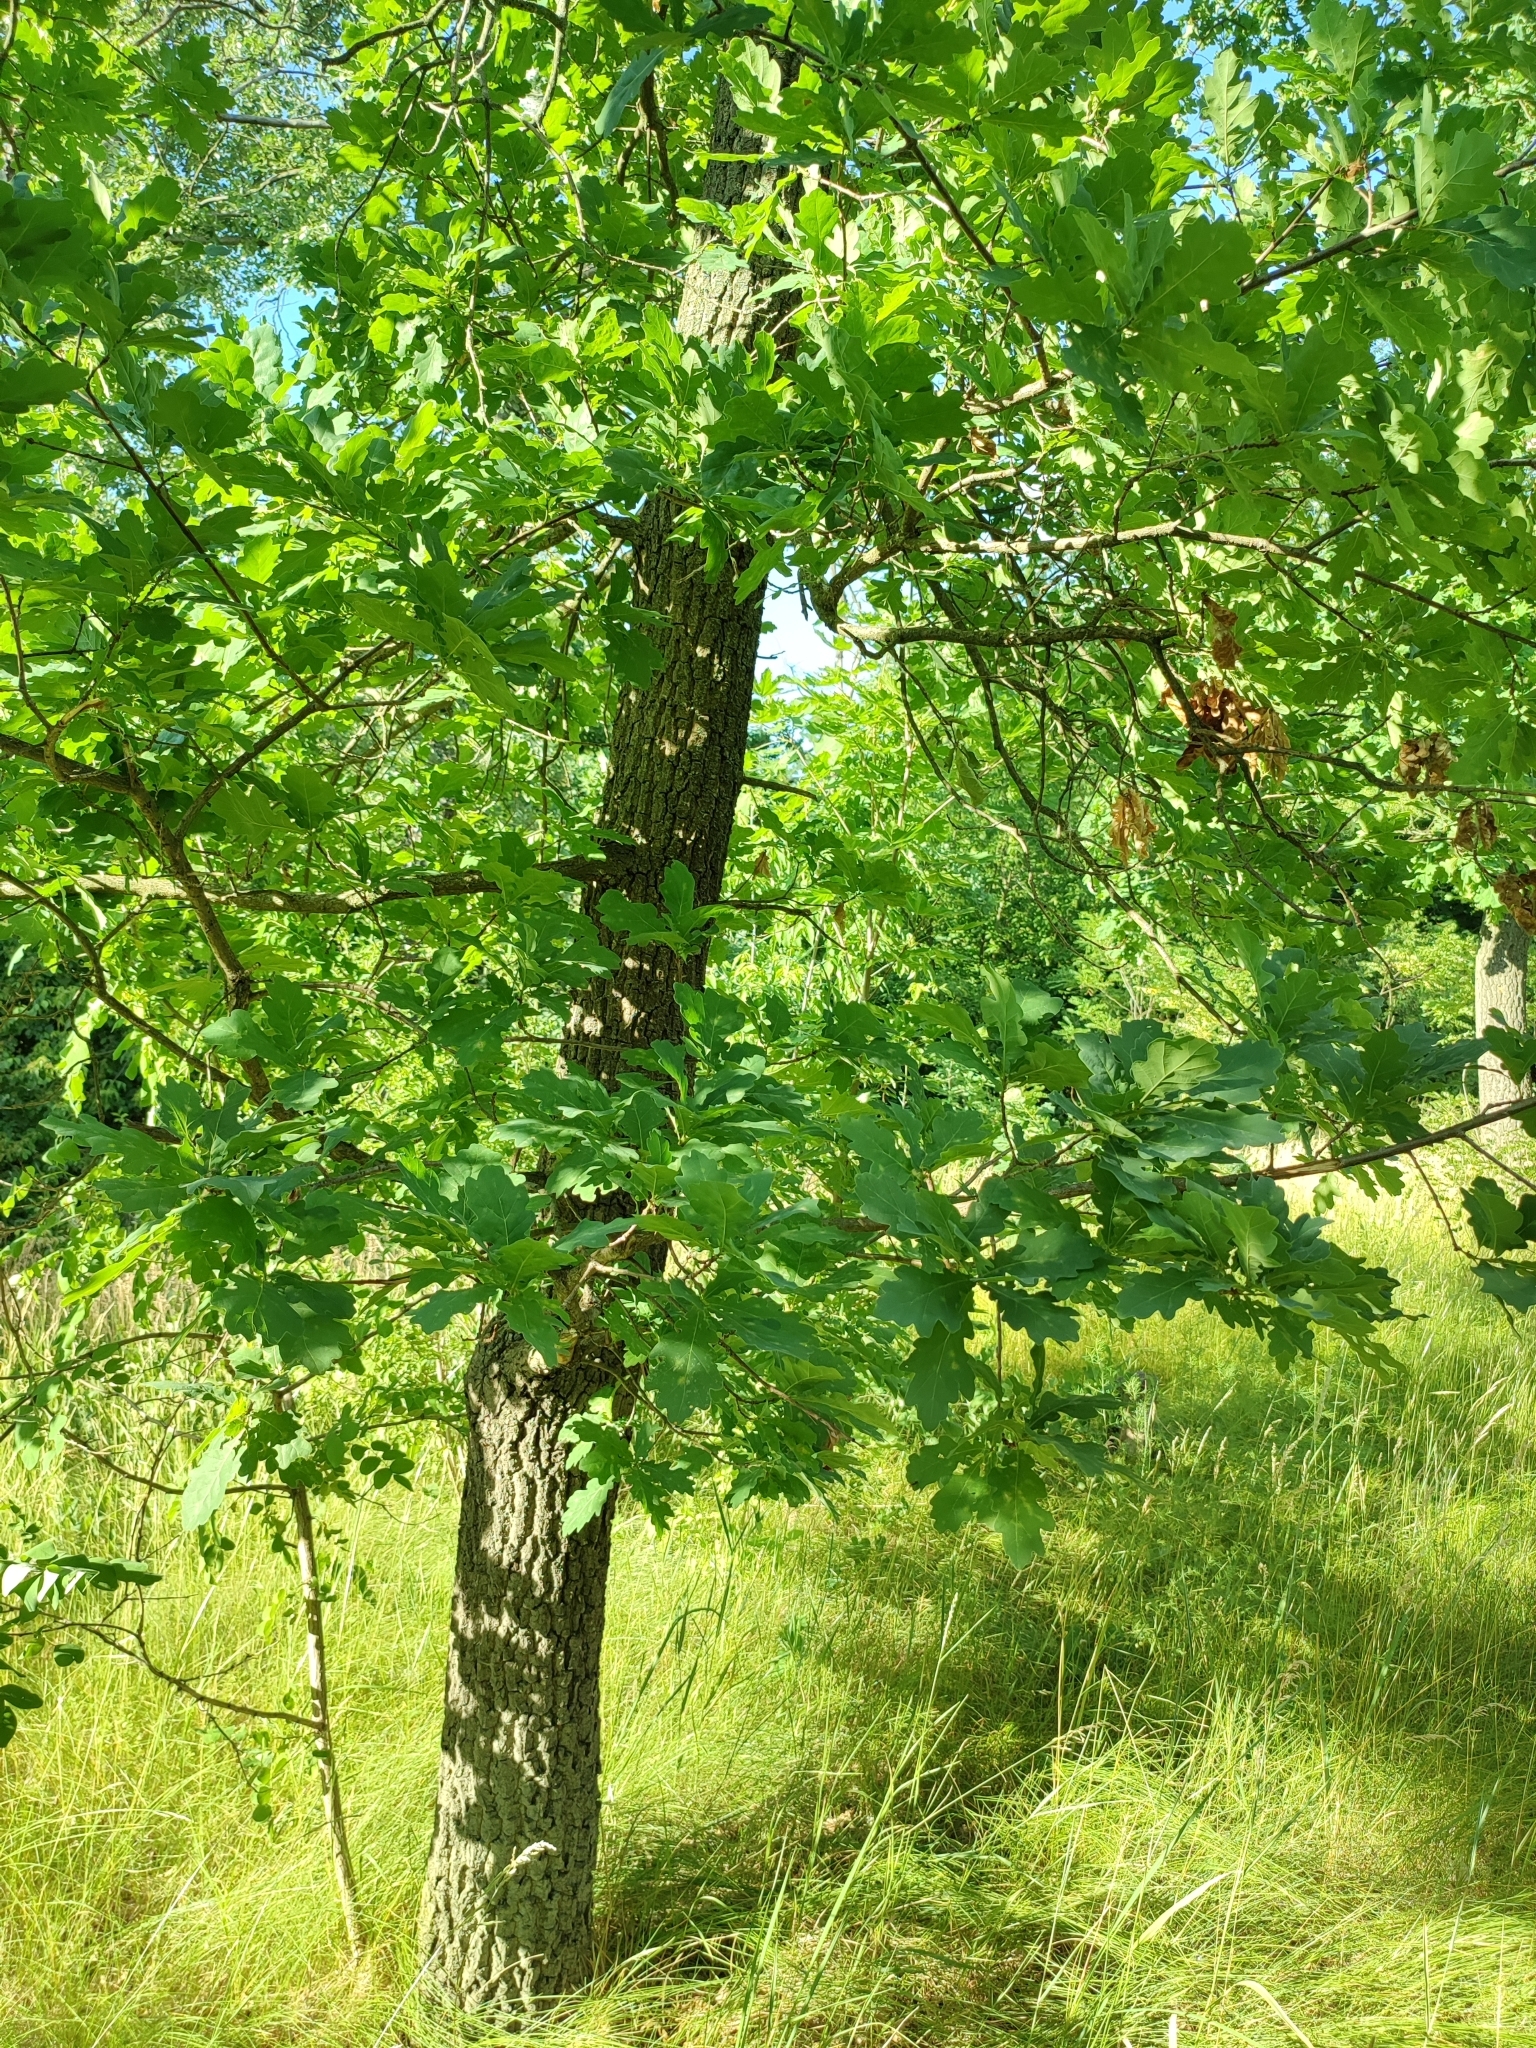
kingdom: Plantae
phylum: Tracheophyta
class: Magnoliopsida
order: Fagales
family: Fagaceae
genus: Quercus
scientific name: Quercus robur
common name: Pedunculate oak
